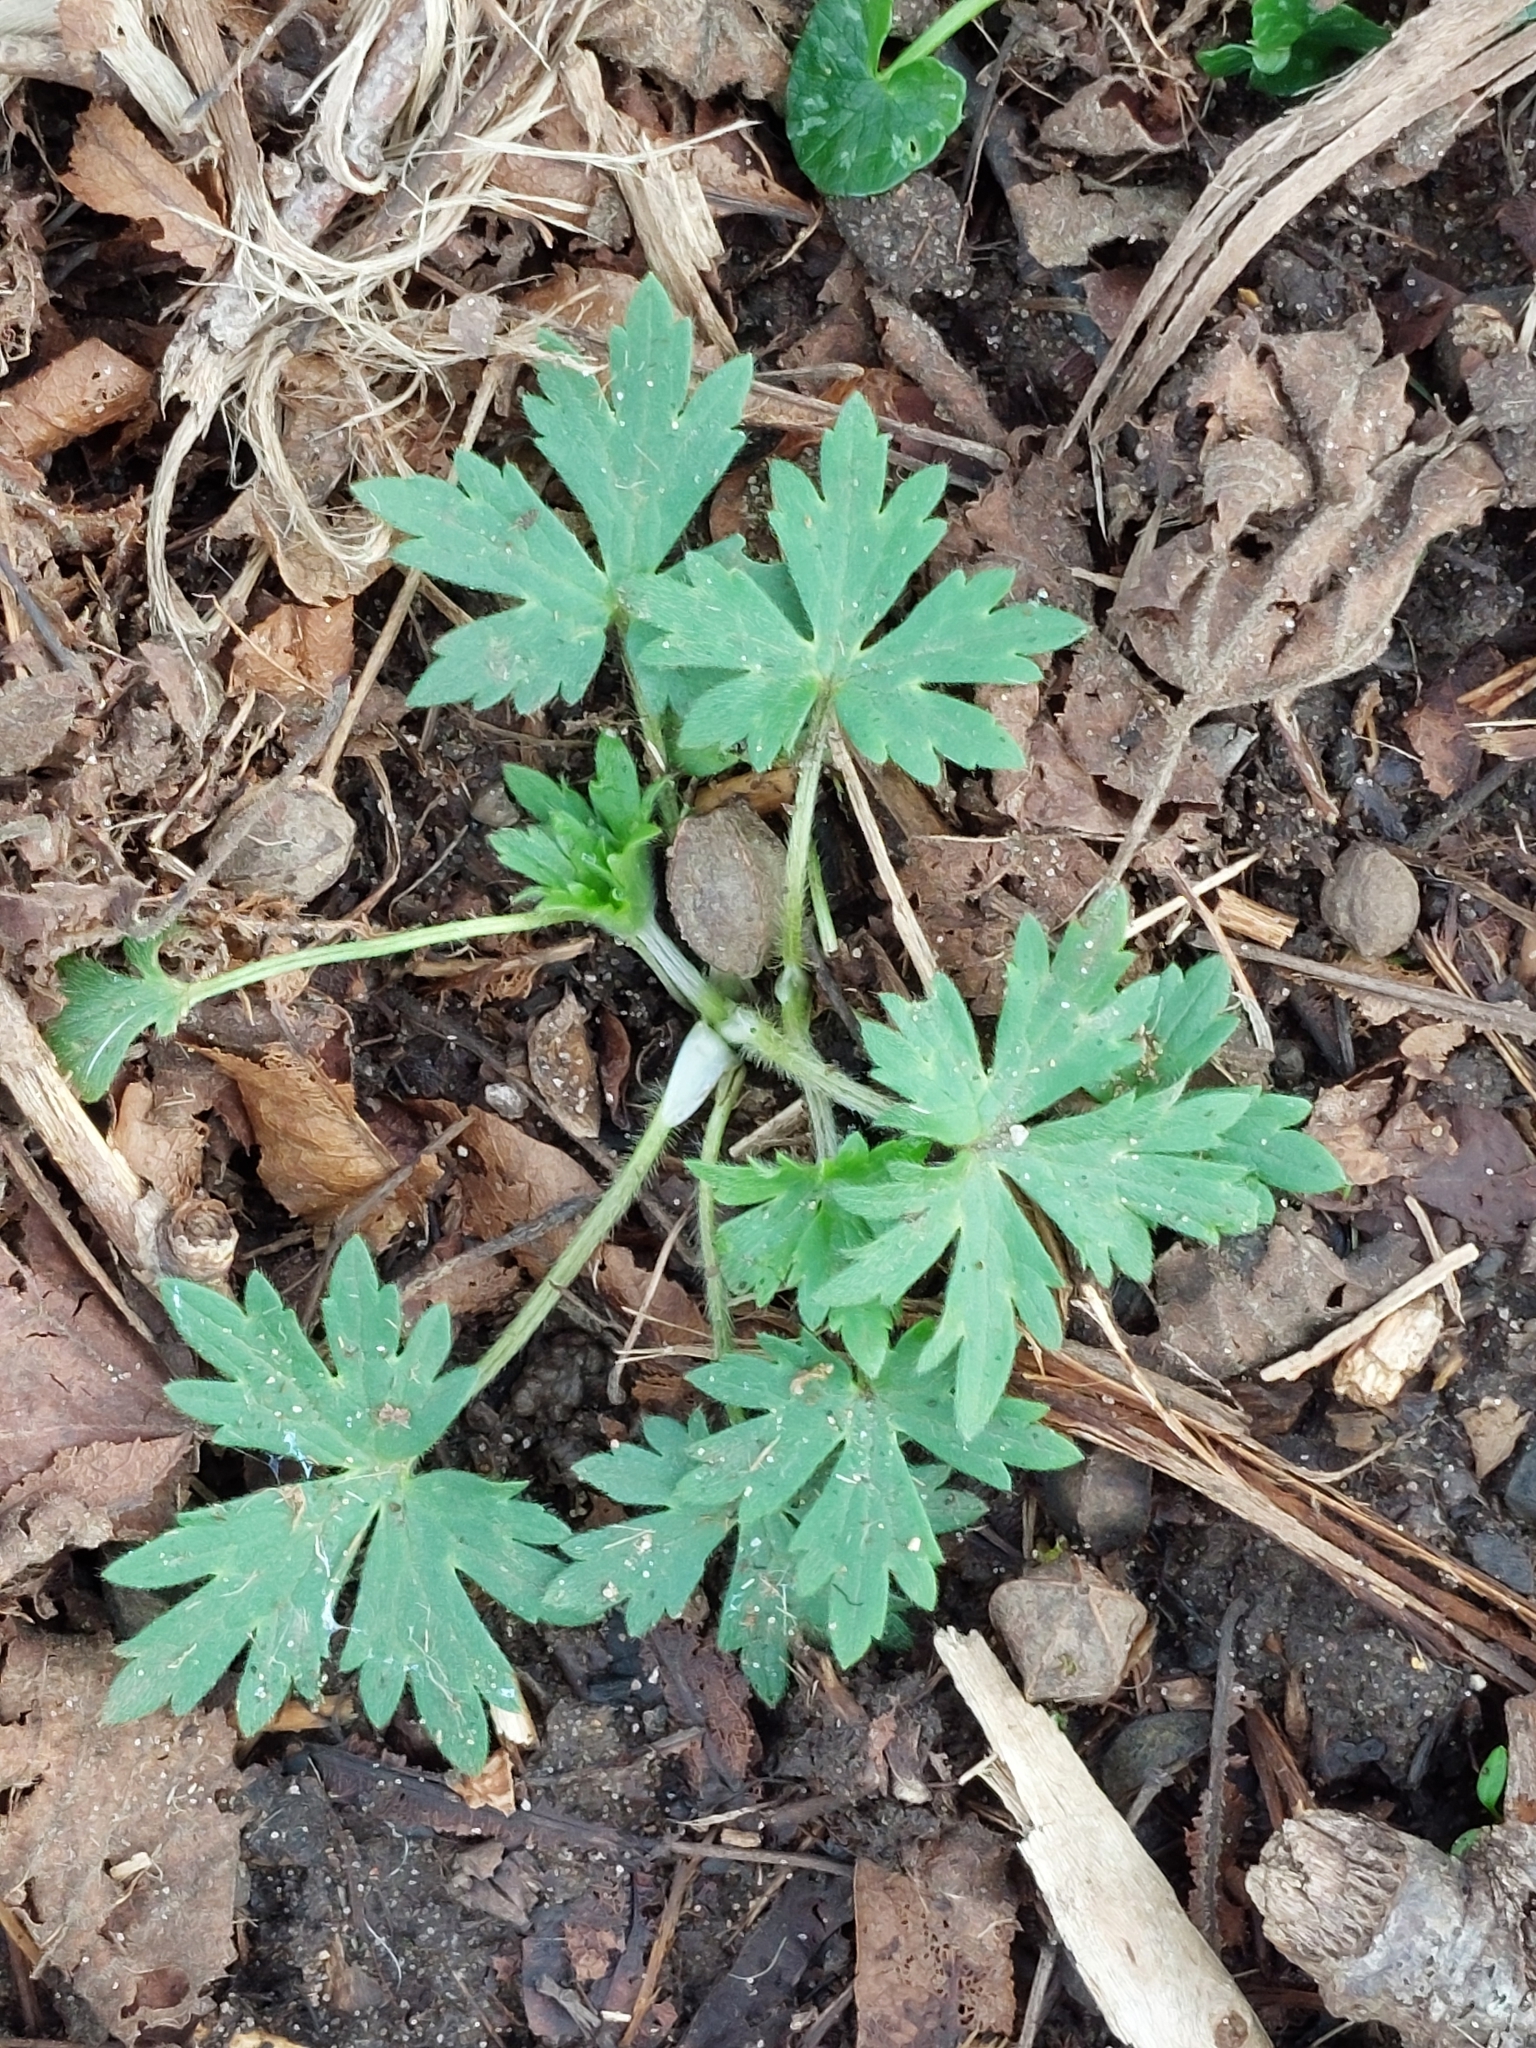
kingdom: Plantae
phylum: Tracheophyta
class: Magnoliopsida
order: Ranunculales
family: Ranunculaceae
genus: Ranunculus
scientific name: Ranunculus acris
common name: Meadow buttercup
